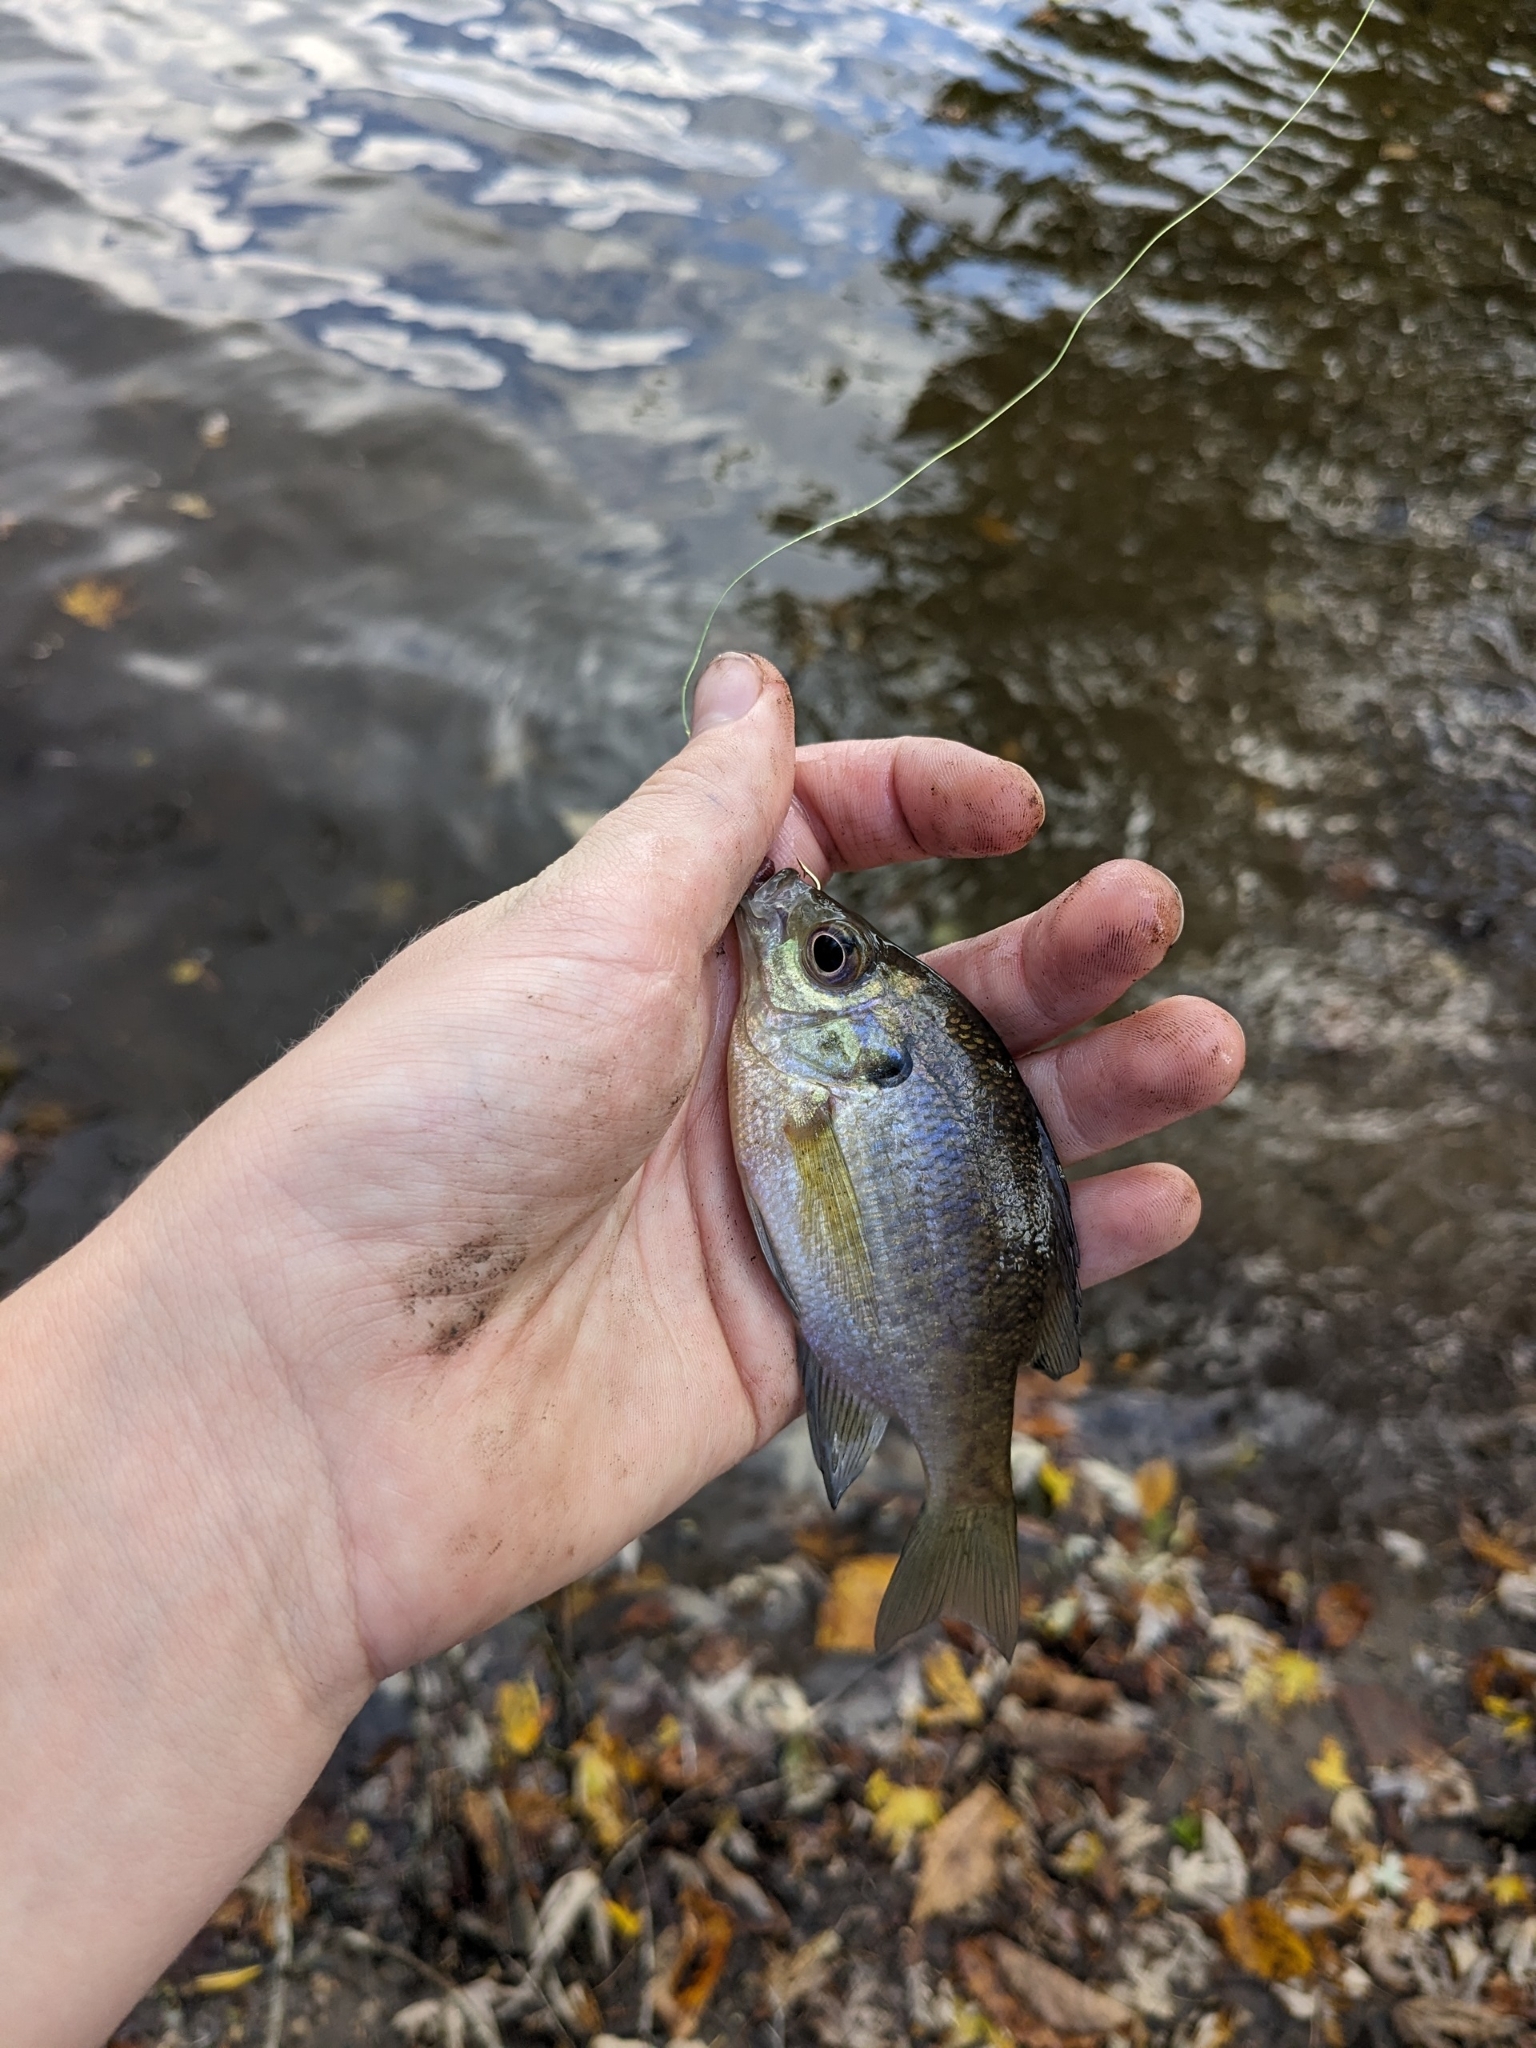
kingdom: Animalia
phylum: Chordata
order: Perciformes
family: Centrarchidae
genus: Lepomis
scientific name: Lepomis macrochirus
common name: Bluegill
